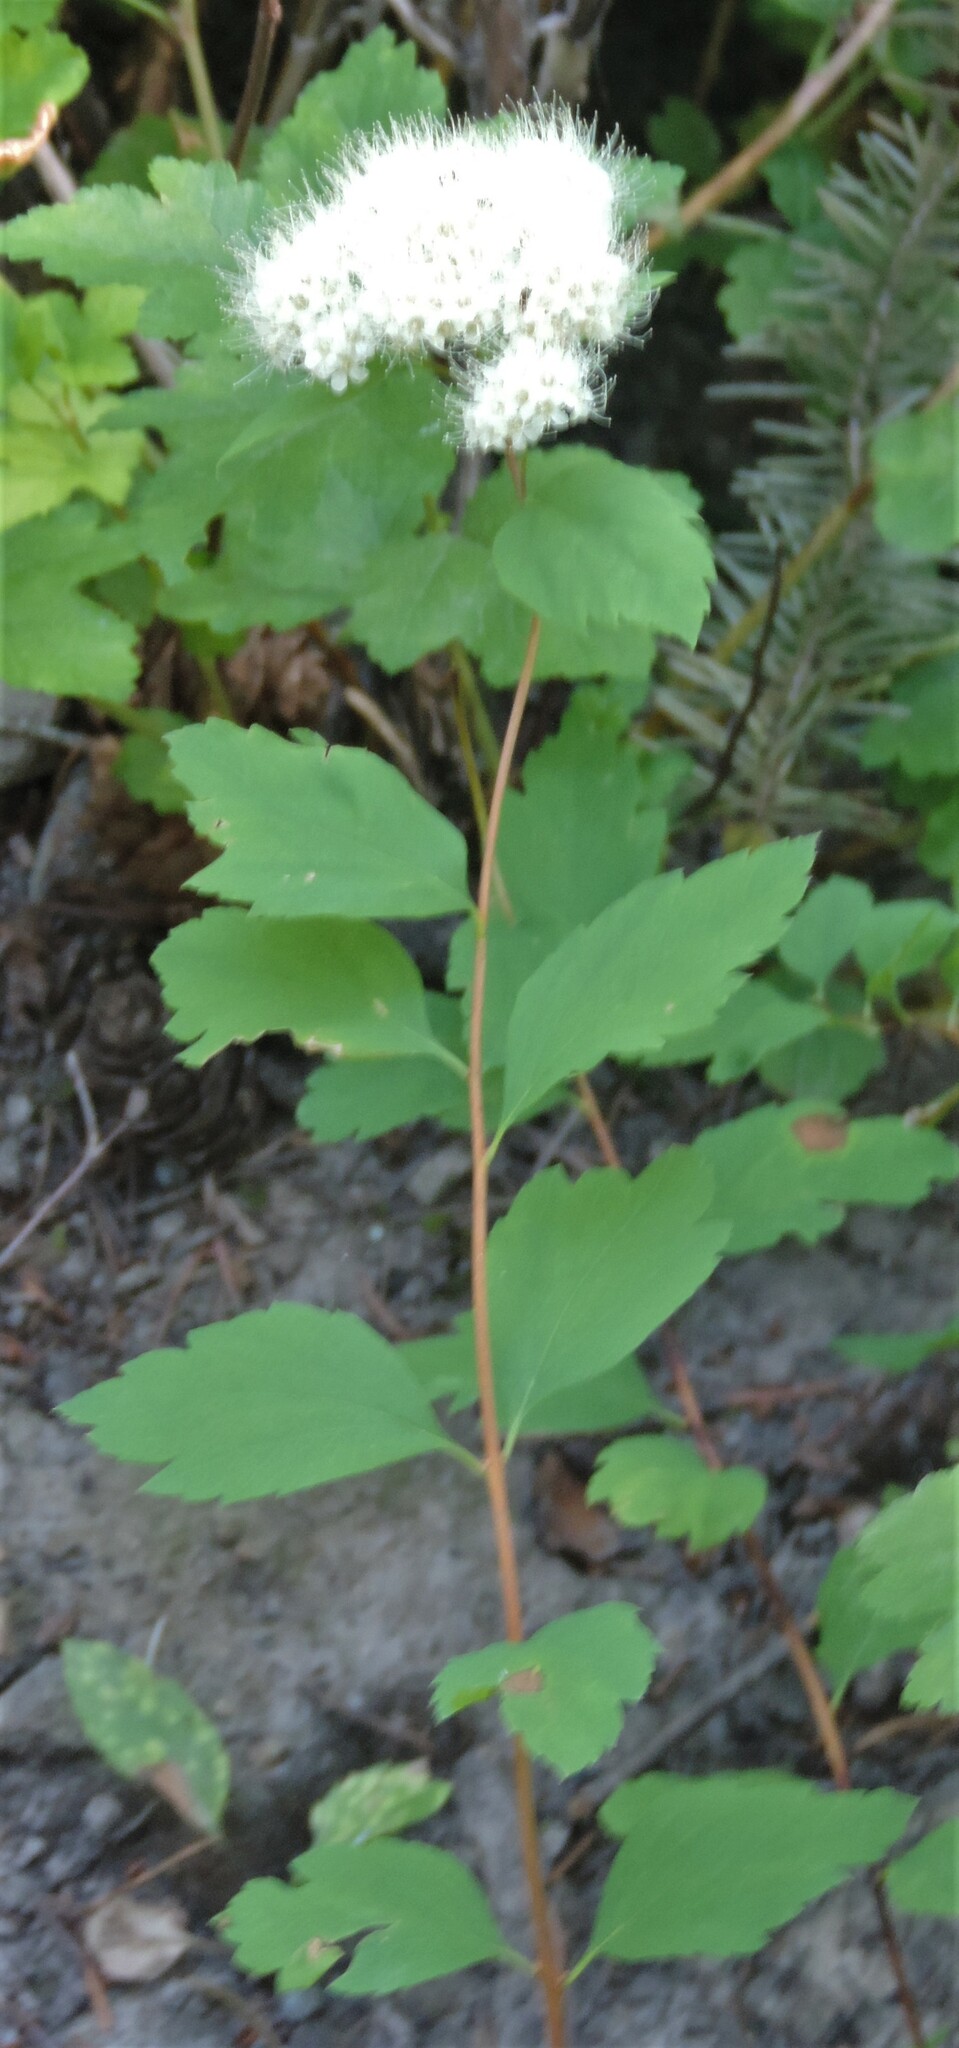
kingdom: Plantae
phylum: Tracheophyta
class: Magnoliopsida
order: Rosales
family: Rosaceae
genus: Spiraea
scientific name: Spiraea lucida
